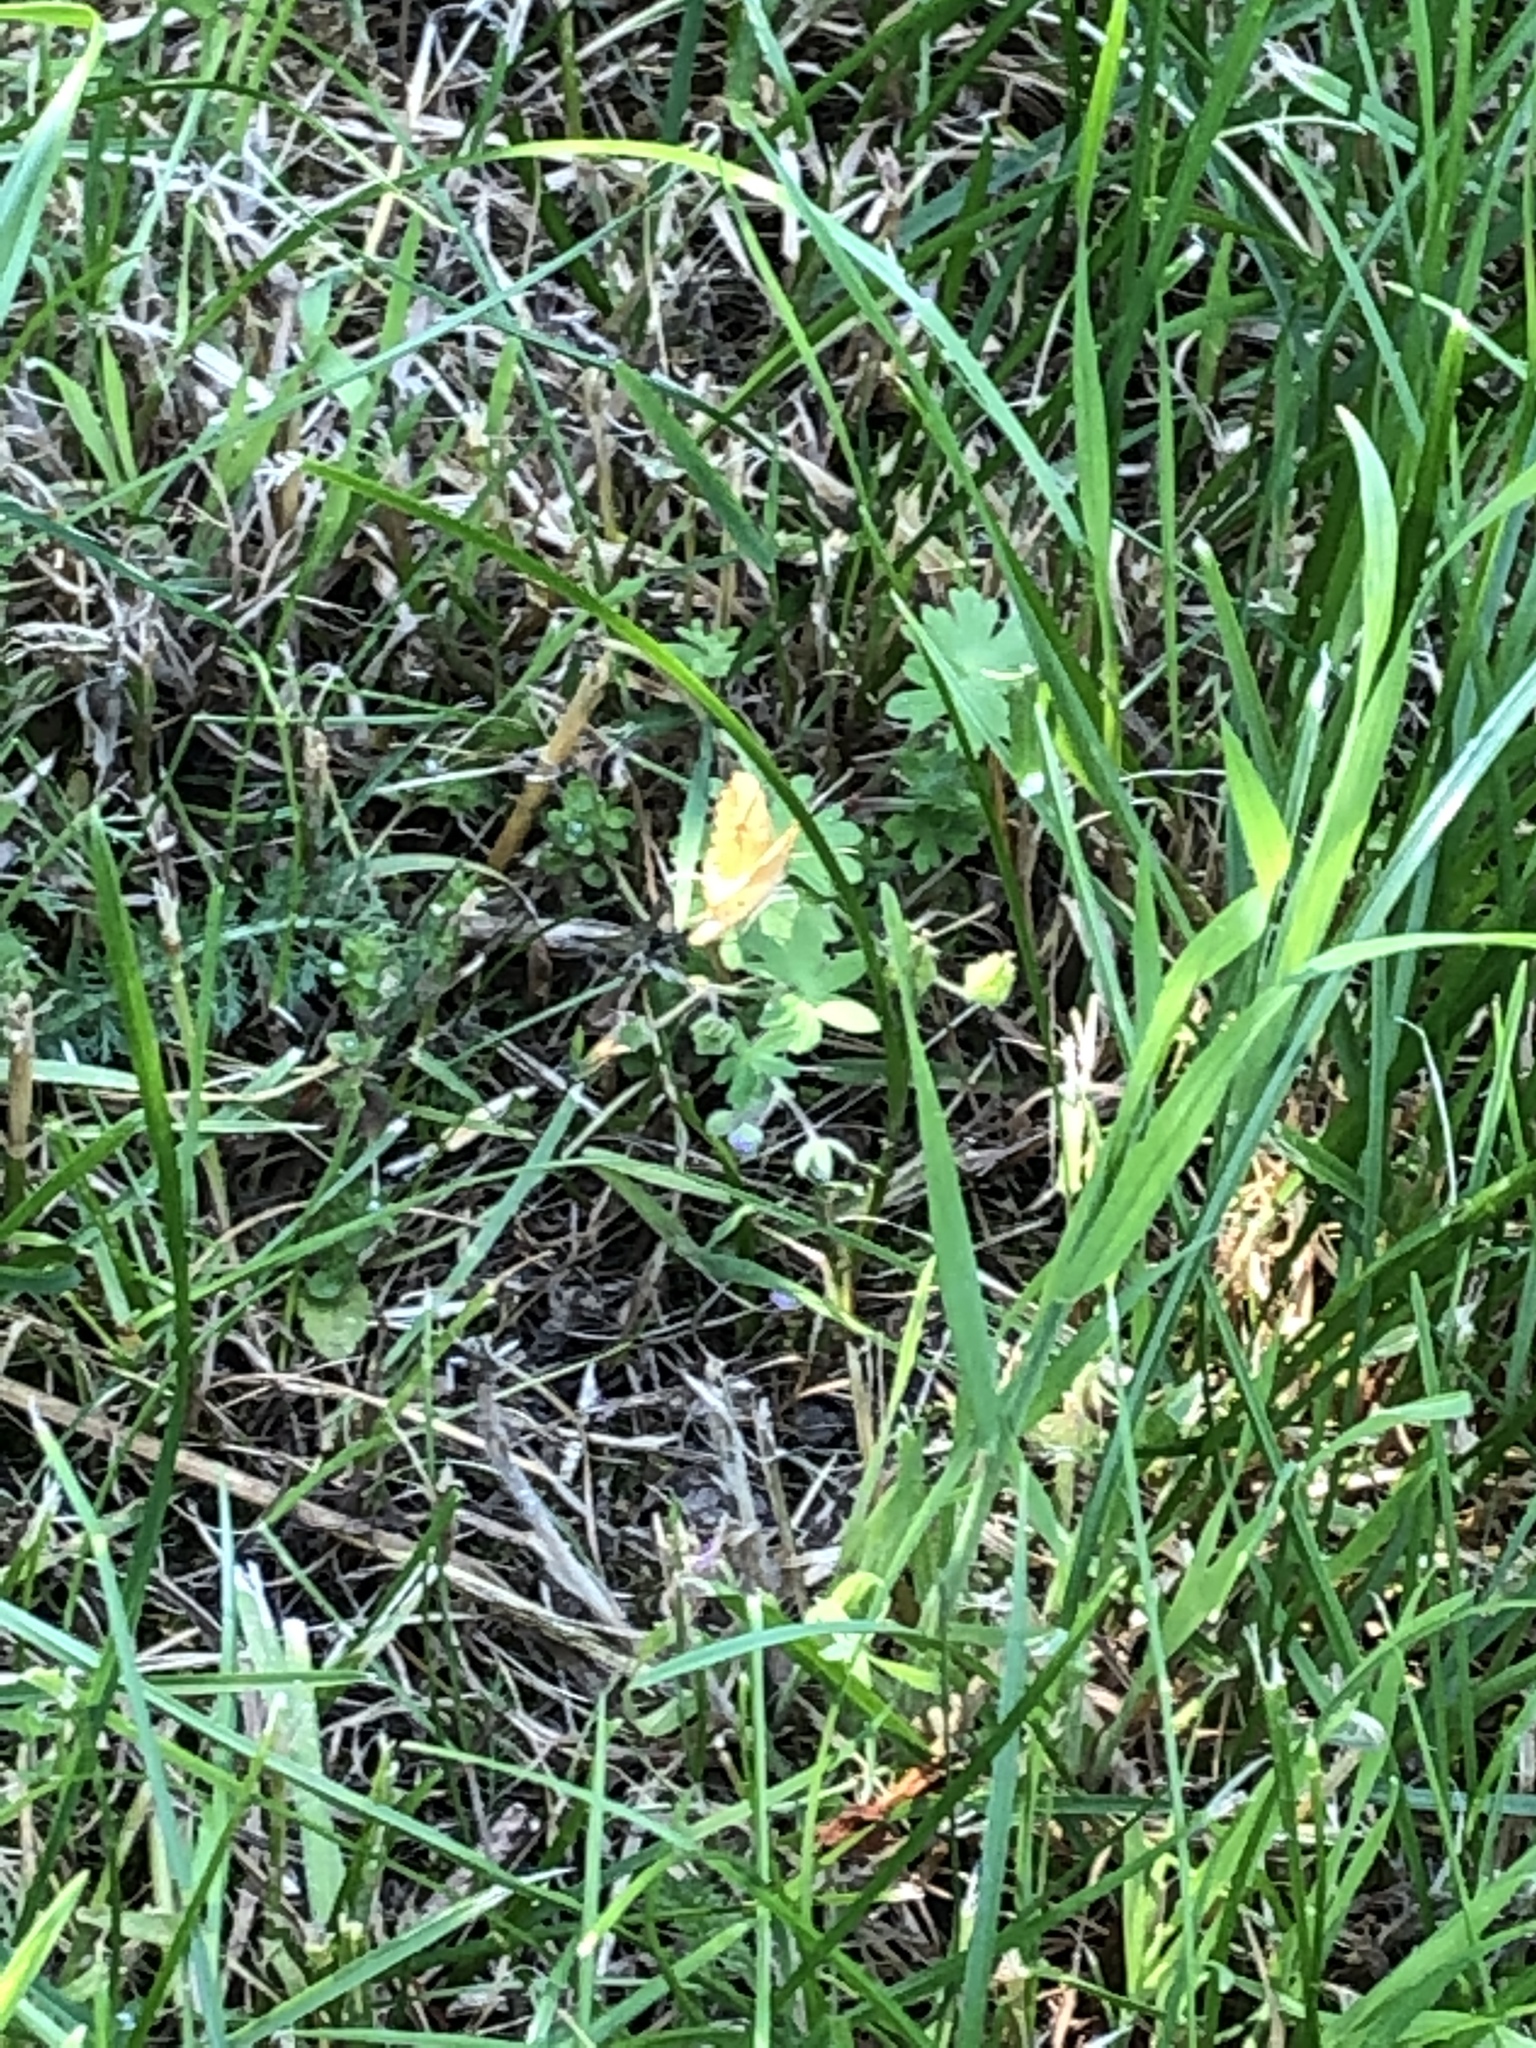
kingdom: Animalia
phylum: Arthropoda
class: Insecta
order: Lepidoptera
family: Geometridae
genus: Eulithis
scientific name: Eulithis mellinata
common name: Spinach
